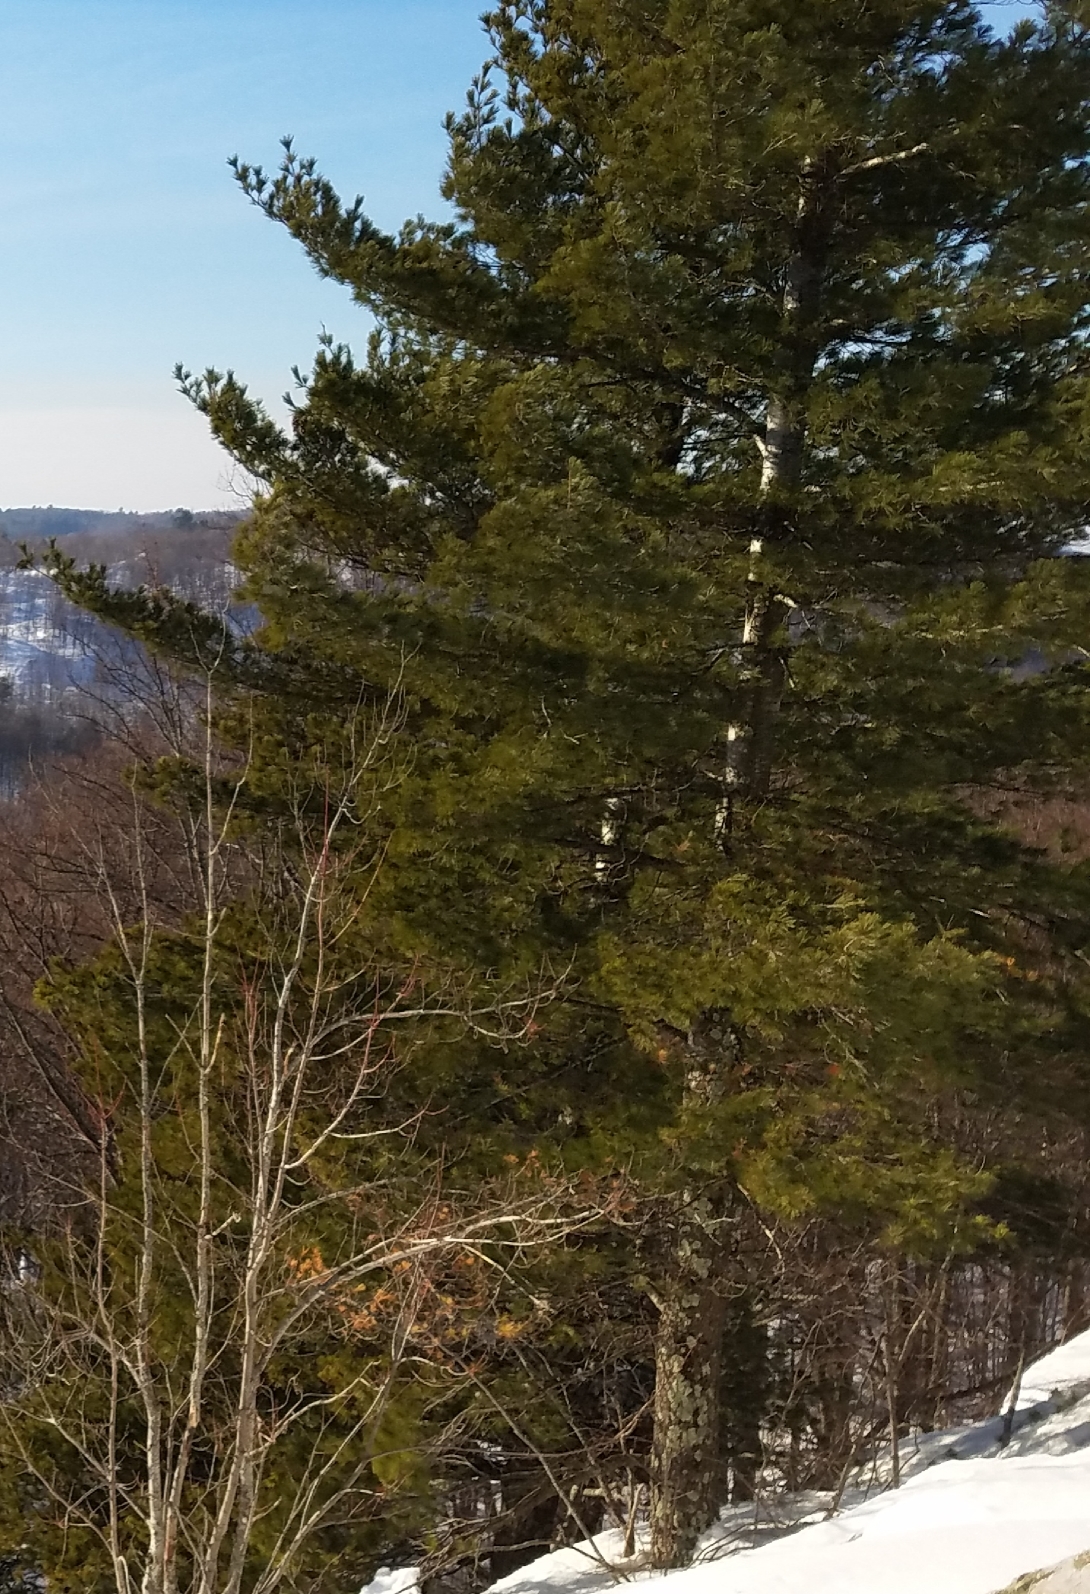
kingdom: Plantae
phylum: Tracheophyta
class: Pinopsida
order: Pinales
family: Pinaceae
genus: Pinus
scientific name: Pinus strobus
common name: Weymouth pine
